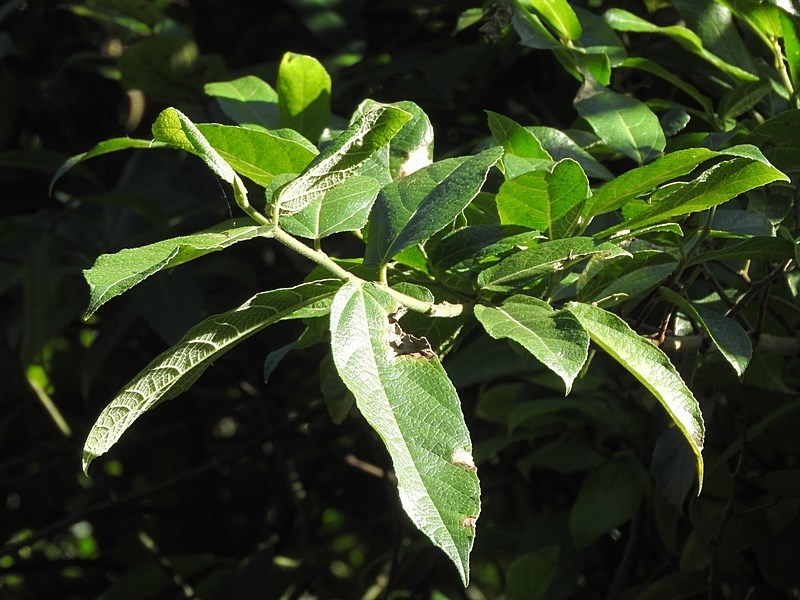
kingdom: Plantae
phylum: Tracheophyta
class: Magnoliopsida
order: Rosales
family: Moraceae
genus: Ficus
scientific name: Ficus coronata
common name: Creek sandpaper fig
